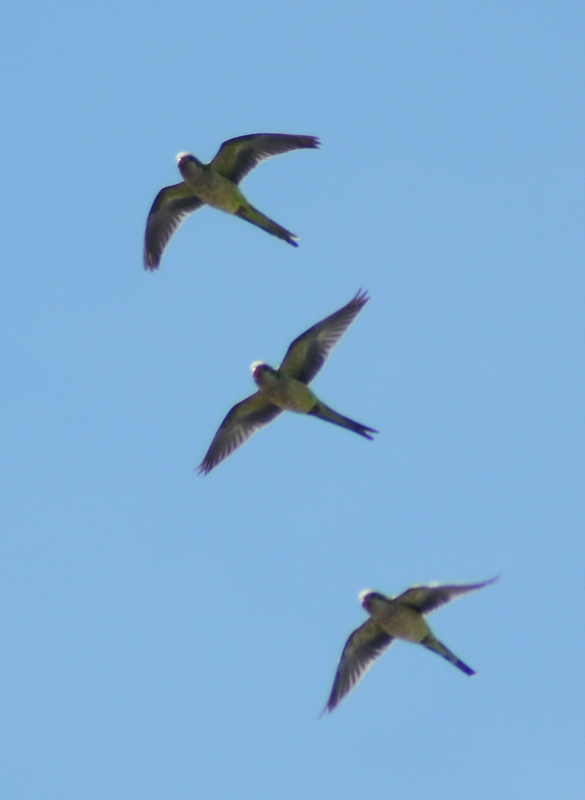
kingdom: Animalia
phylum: Chordata
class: Aves
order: Psittaciformes
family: Psittacidae
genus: Myiopsitta
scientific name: Myiopsitta monachus
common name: Monk parakeet
